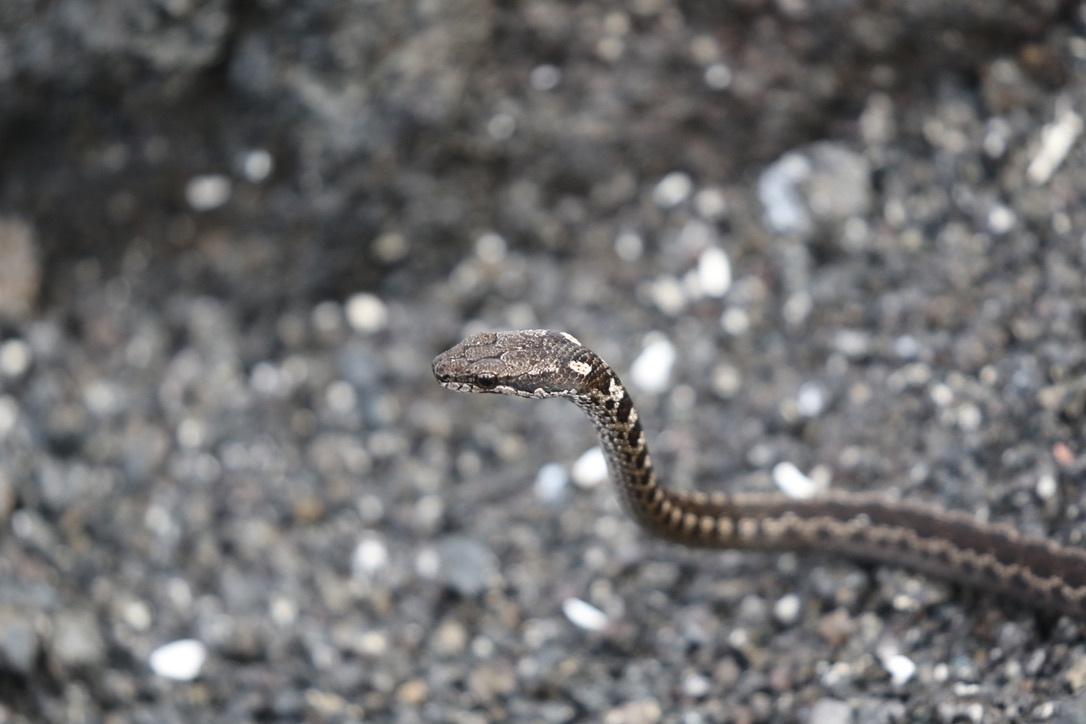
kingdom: Animalia
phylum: Chordata
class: Squamata
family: Colubridae
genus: Pseudalsophis
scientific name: Pseudalsophis occidentalis
